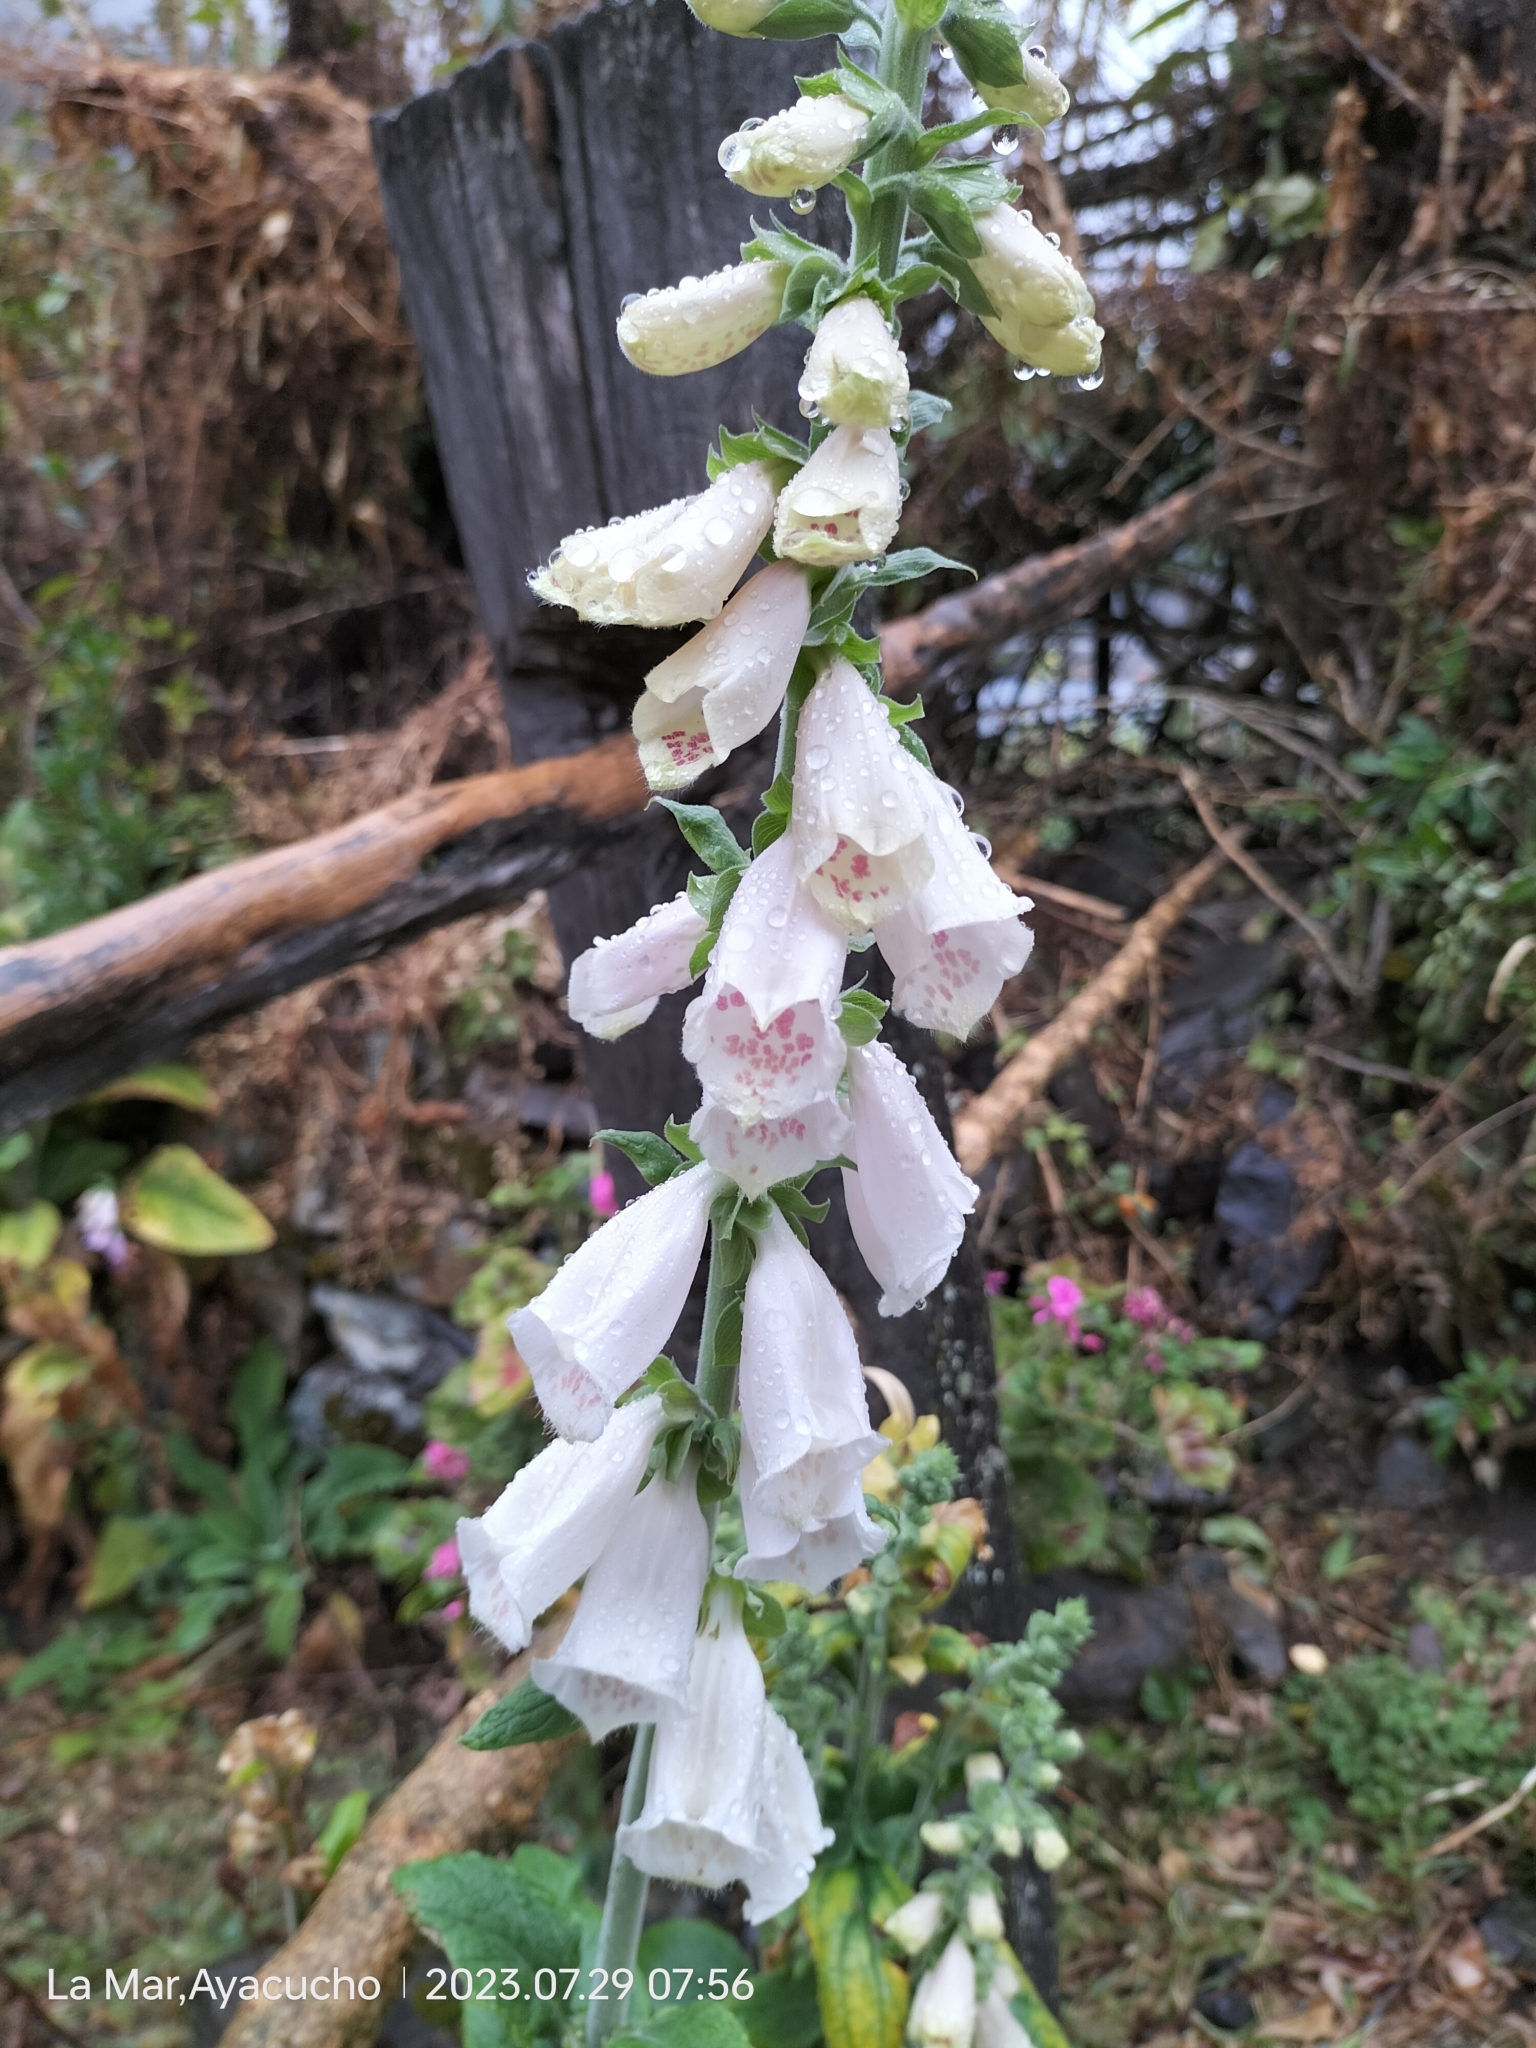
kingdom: Plantae
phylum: Tracheophyta
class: Magnoliopsida
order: Lamiales
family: Plantaginaceae
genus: Digitalis
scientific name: Digitalis purpurea
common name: Foxglove
